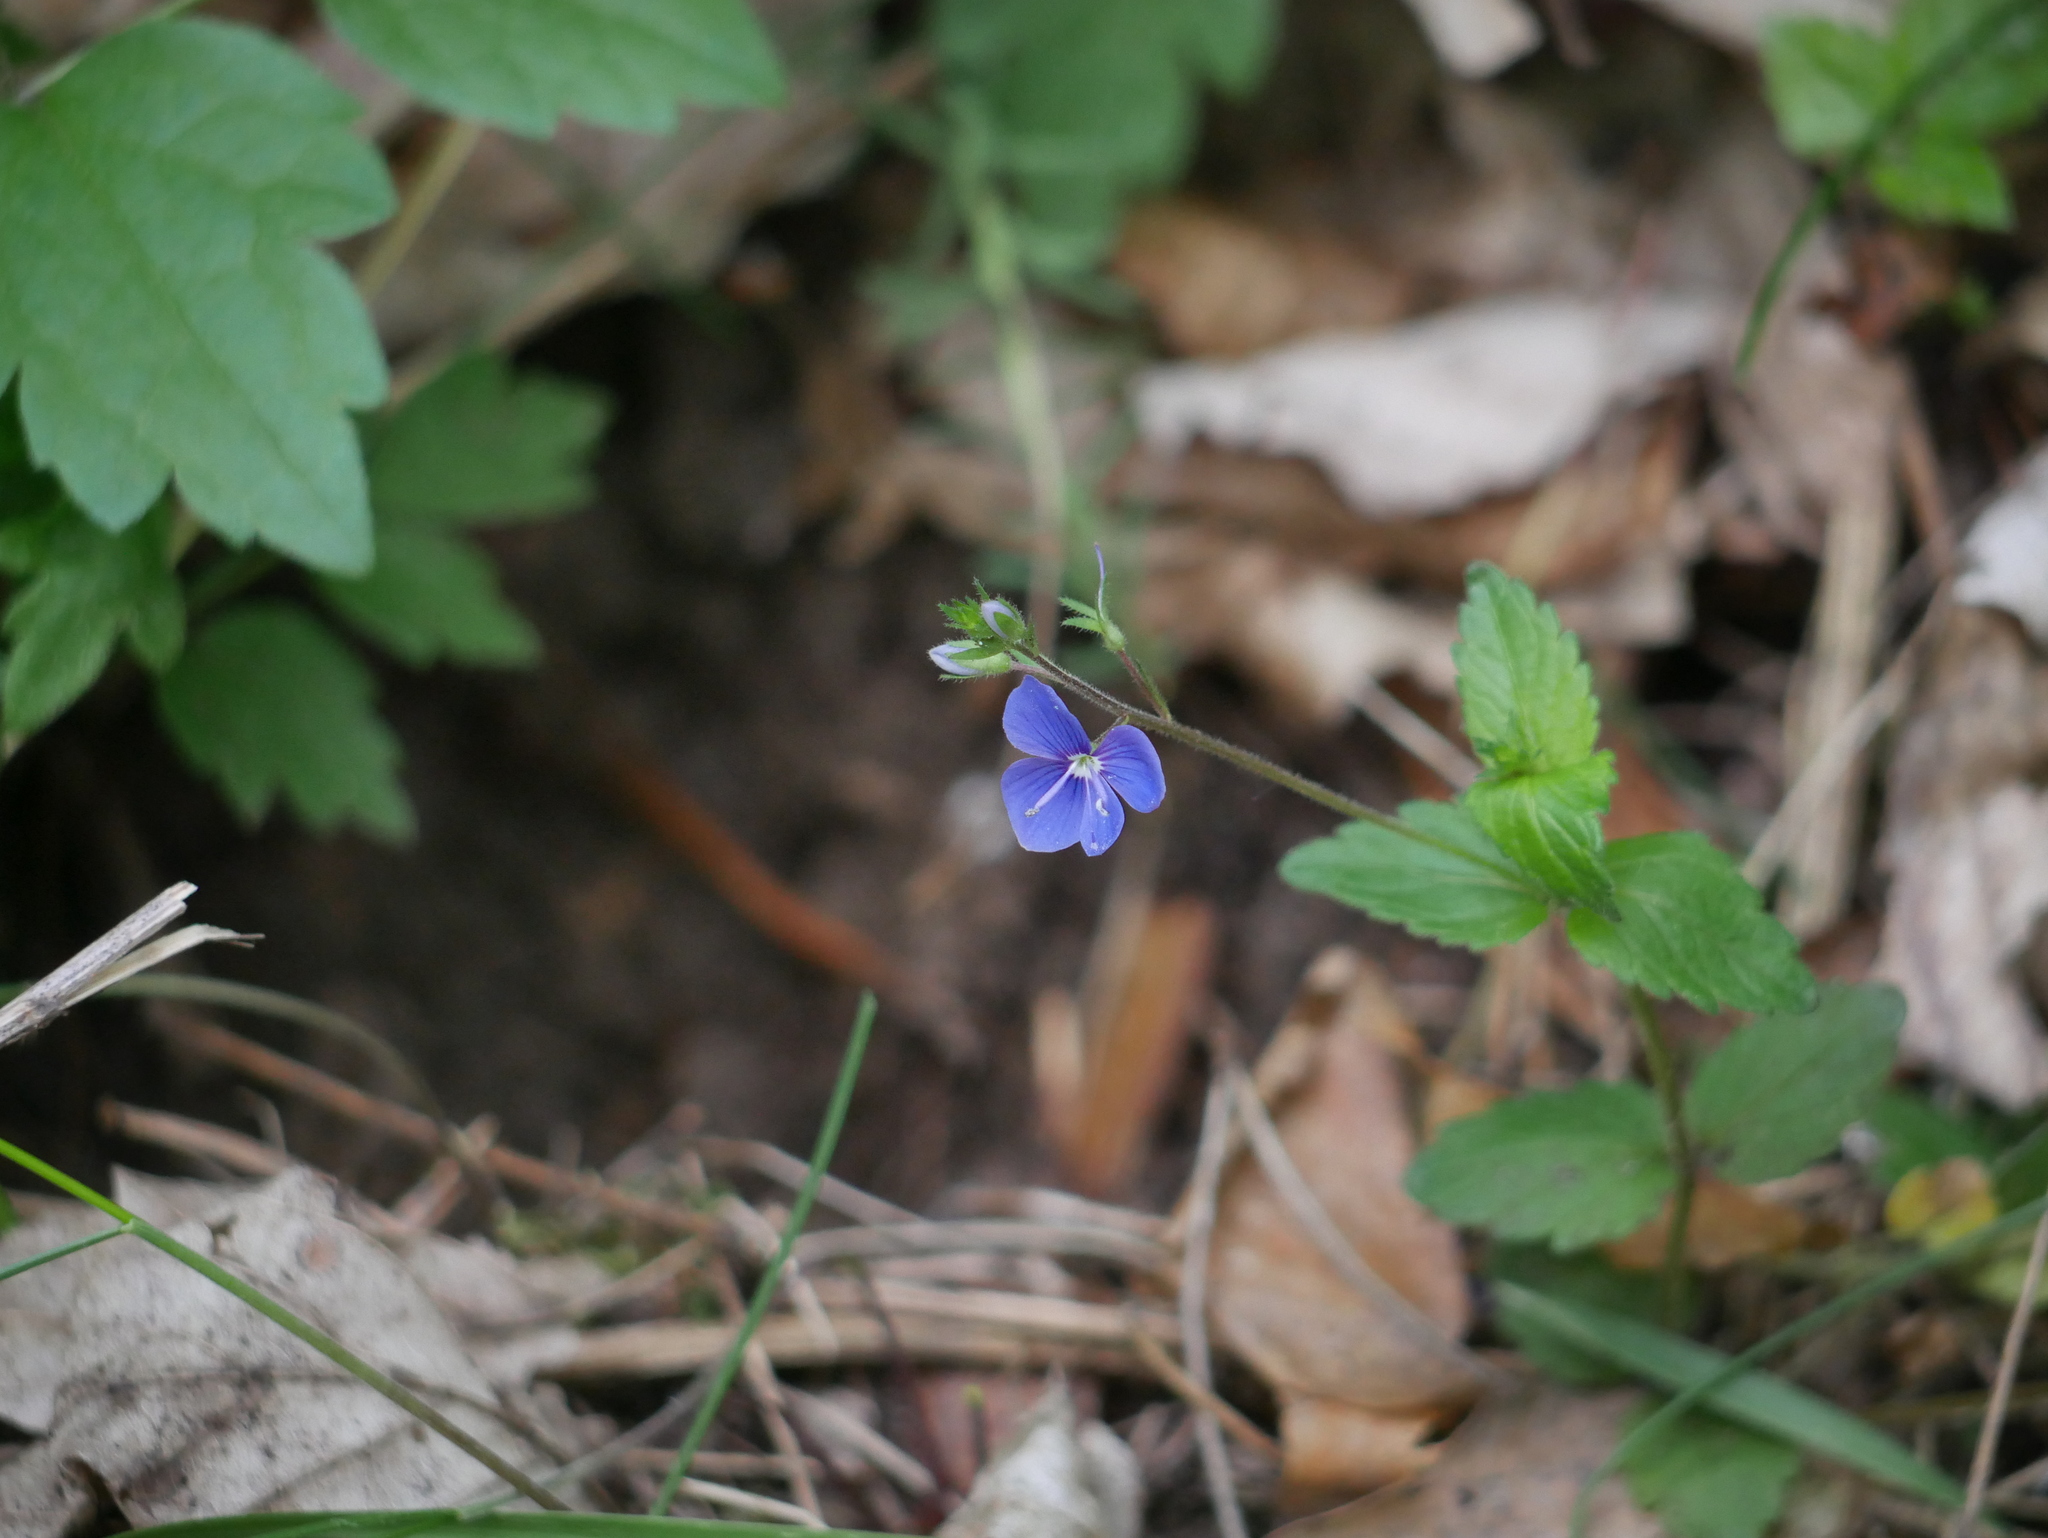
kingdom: Plantae
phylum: Tracheophyta
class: Magnoliopsida
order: Lamiales
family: Plantaginaceae
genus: Veronica
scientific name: Veronica chamaedrys
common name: Germander speedwell
